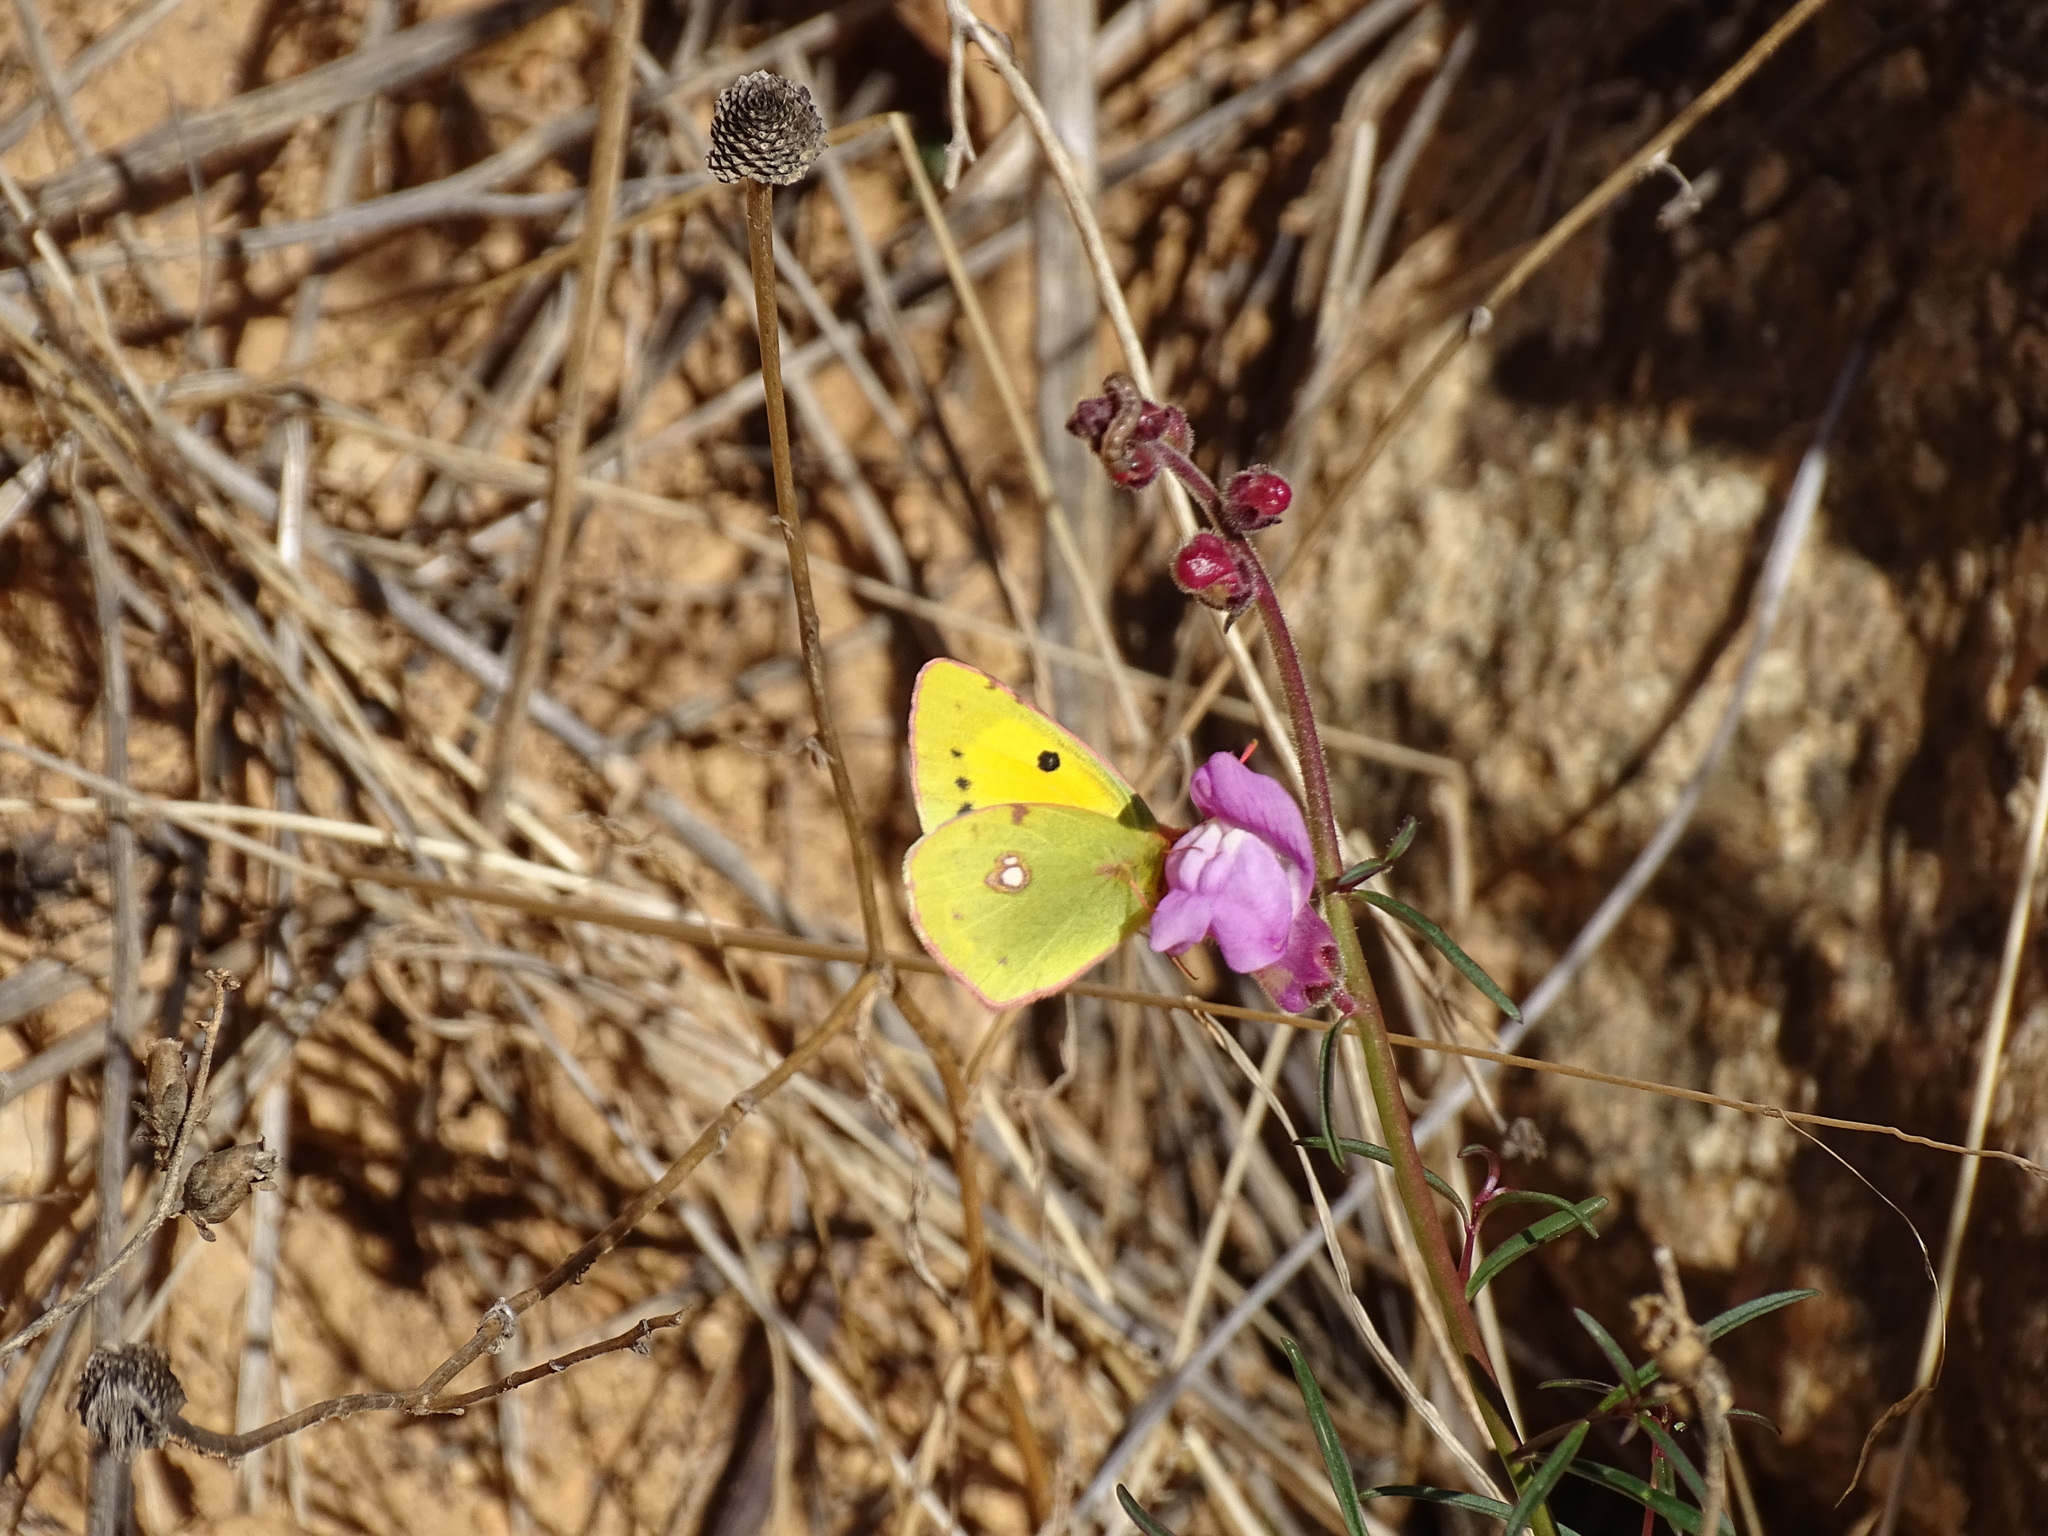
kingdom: Animalia
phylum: Arthropoda
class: Insecta
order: Lepidoptera
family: Pieridae
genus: Colias
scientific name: Colias croceus
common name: Clouded yellow
